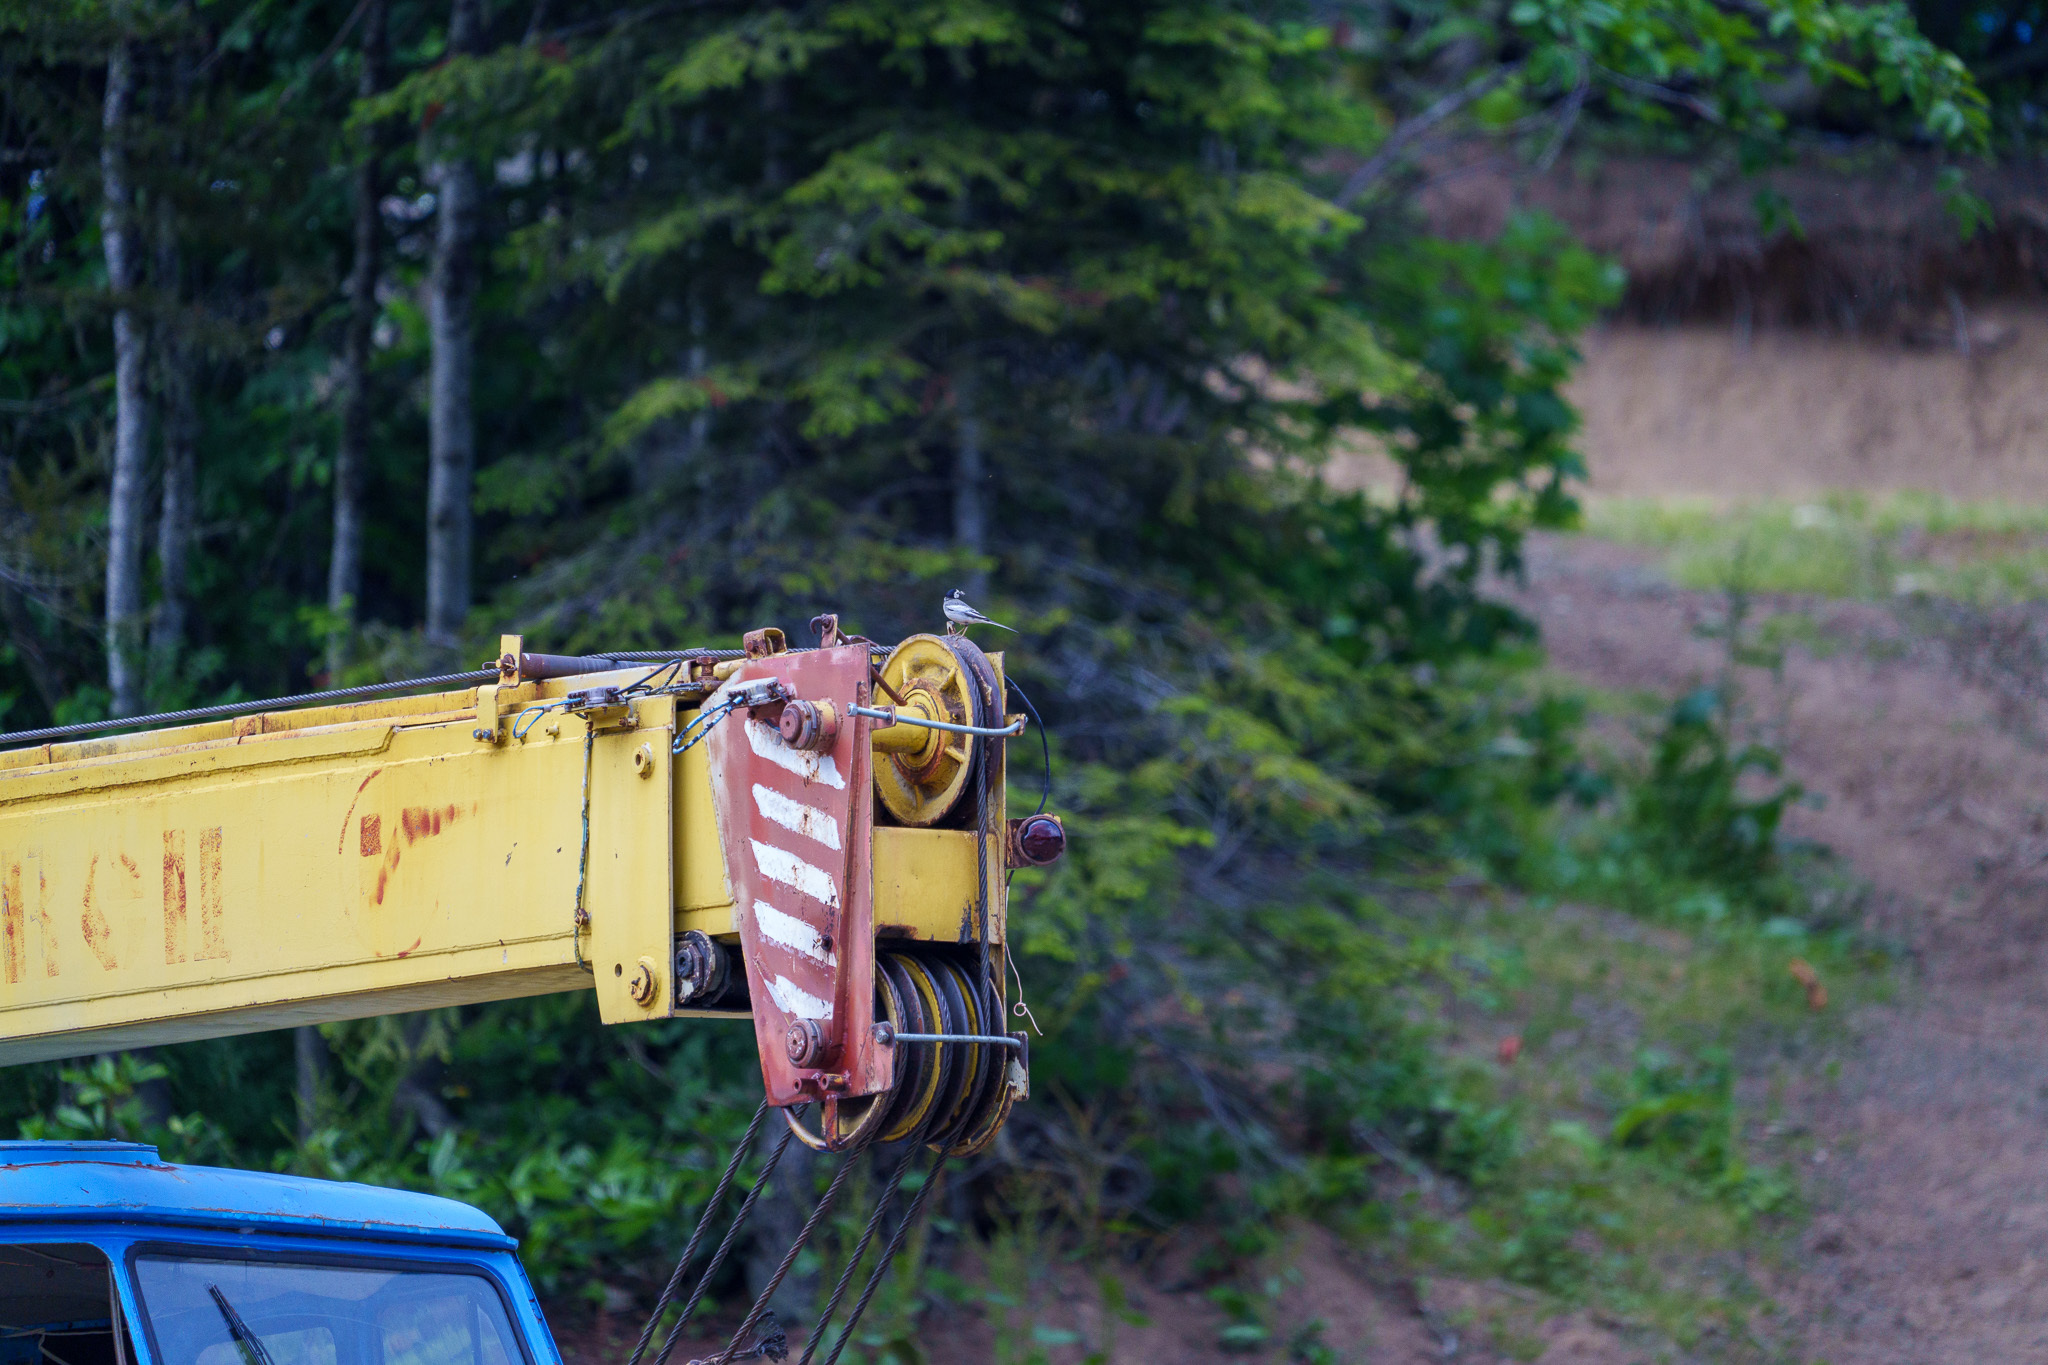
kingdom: Animalia
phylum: Chordata
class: Aves
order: Passeriformes
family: Motacillidae
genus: Motacilla
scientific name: Motacilla alba
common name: White wagtail
